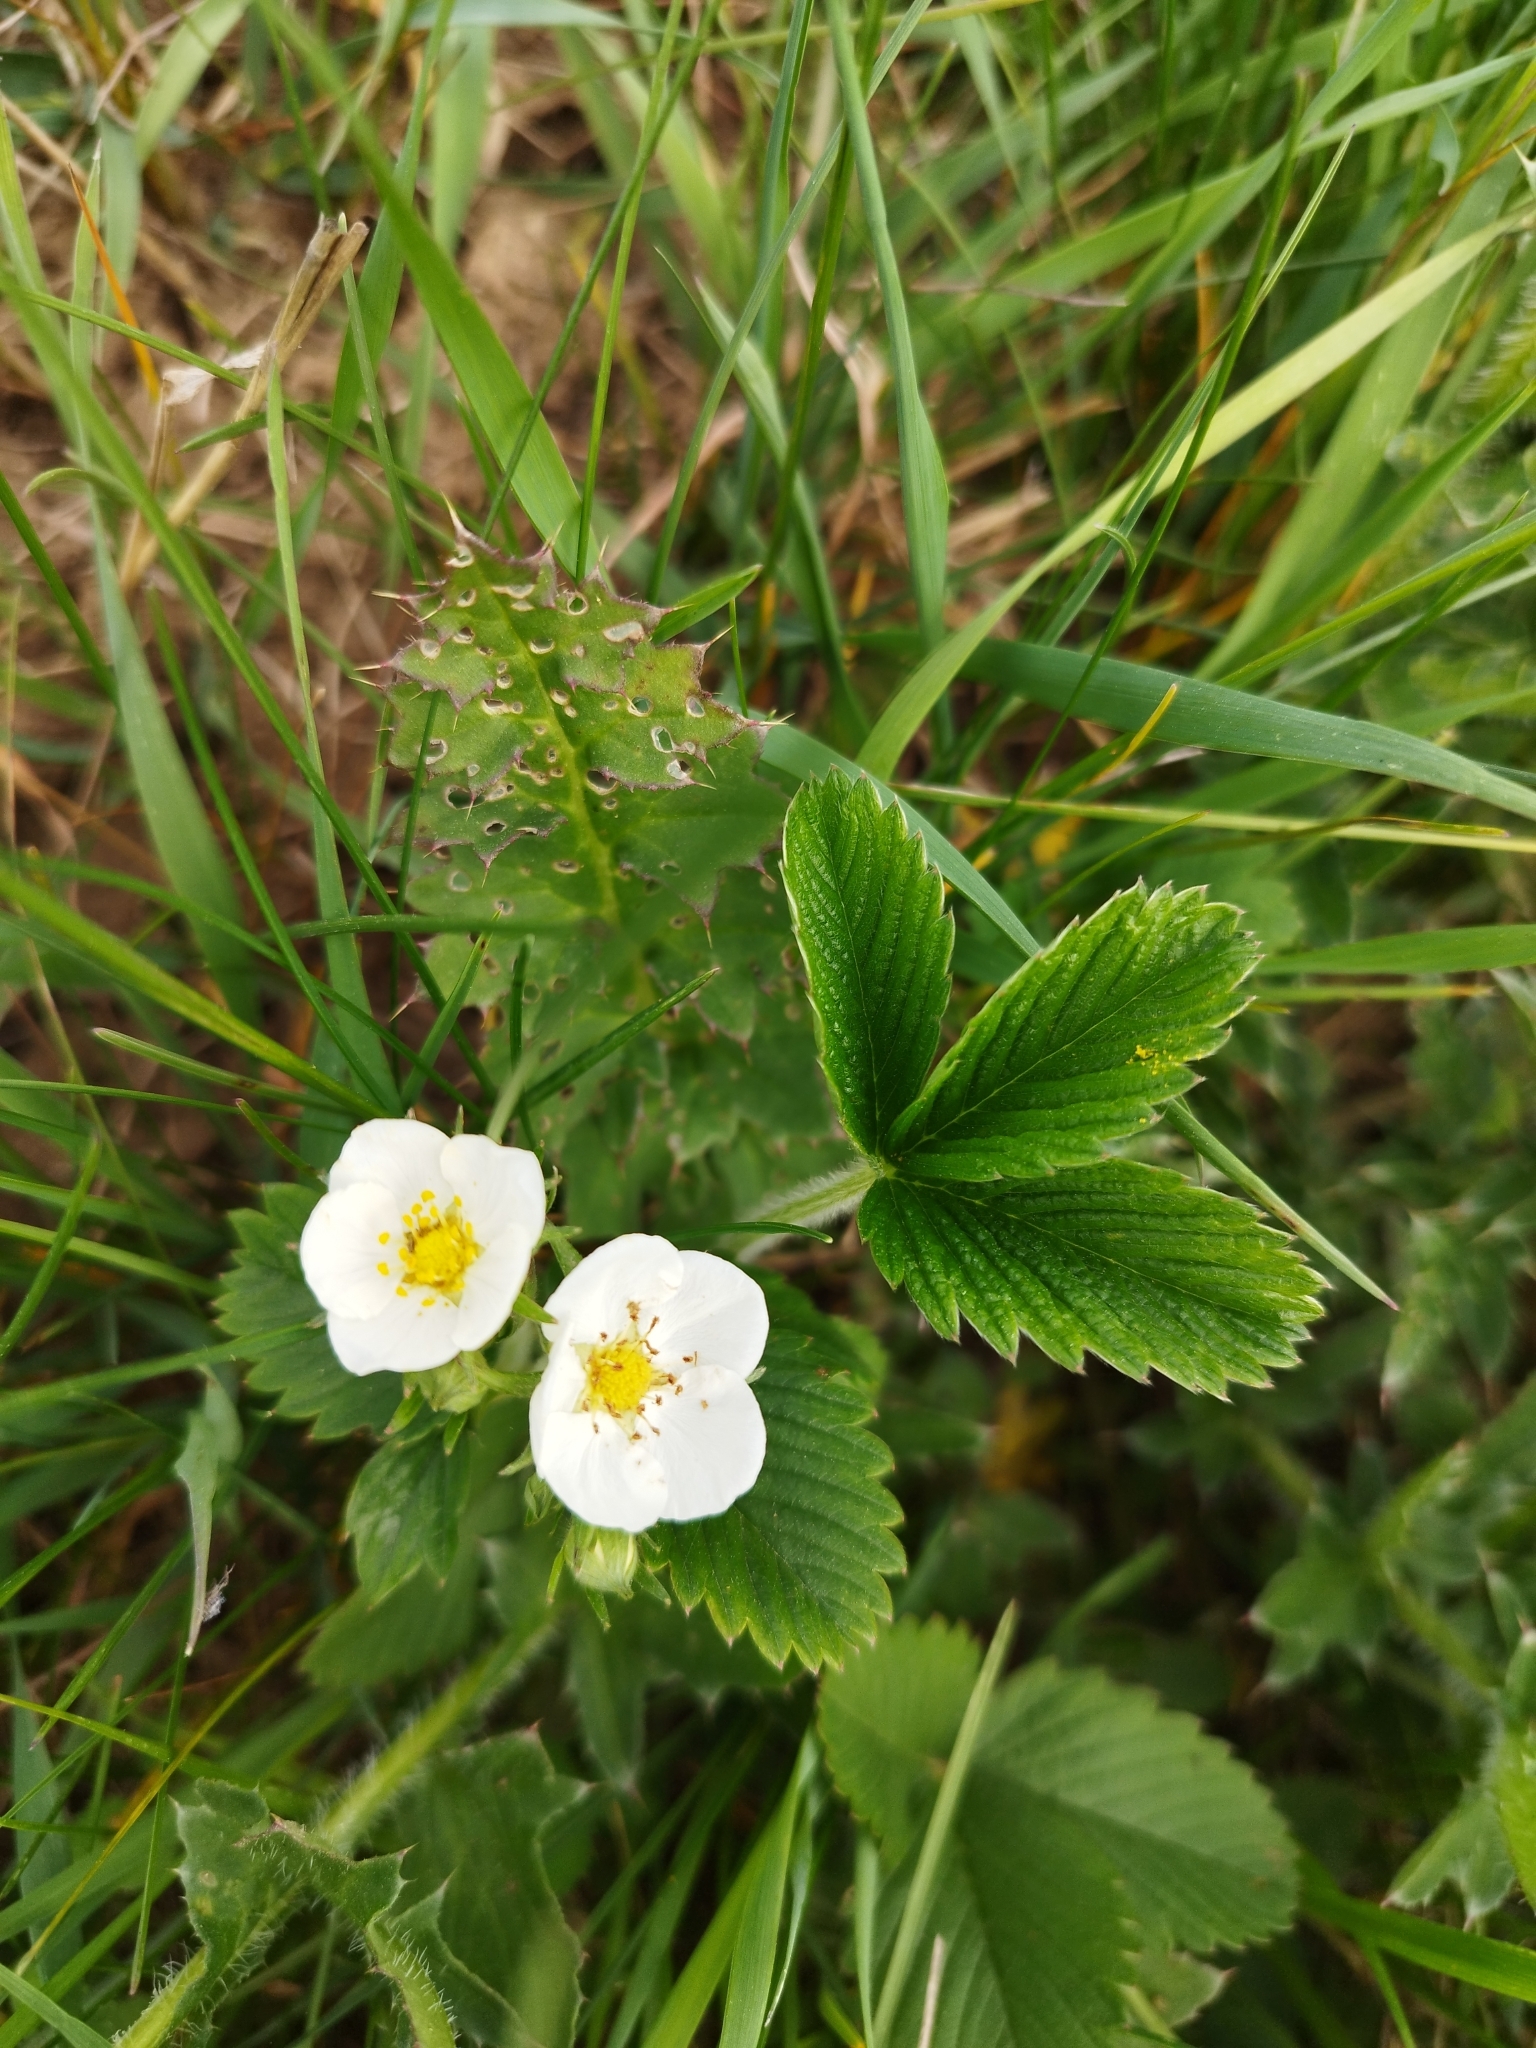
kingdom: Plantae
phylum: Tracheophyta
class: Magnoliopsida
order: Rosales
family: Rosaceae
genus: Fragaria
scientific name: Fragaria viridis
